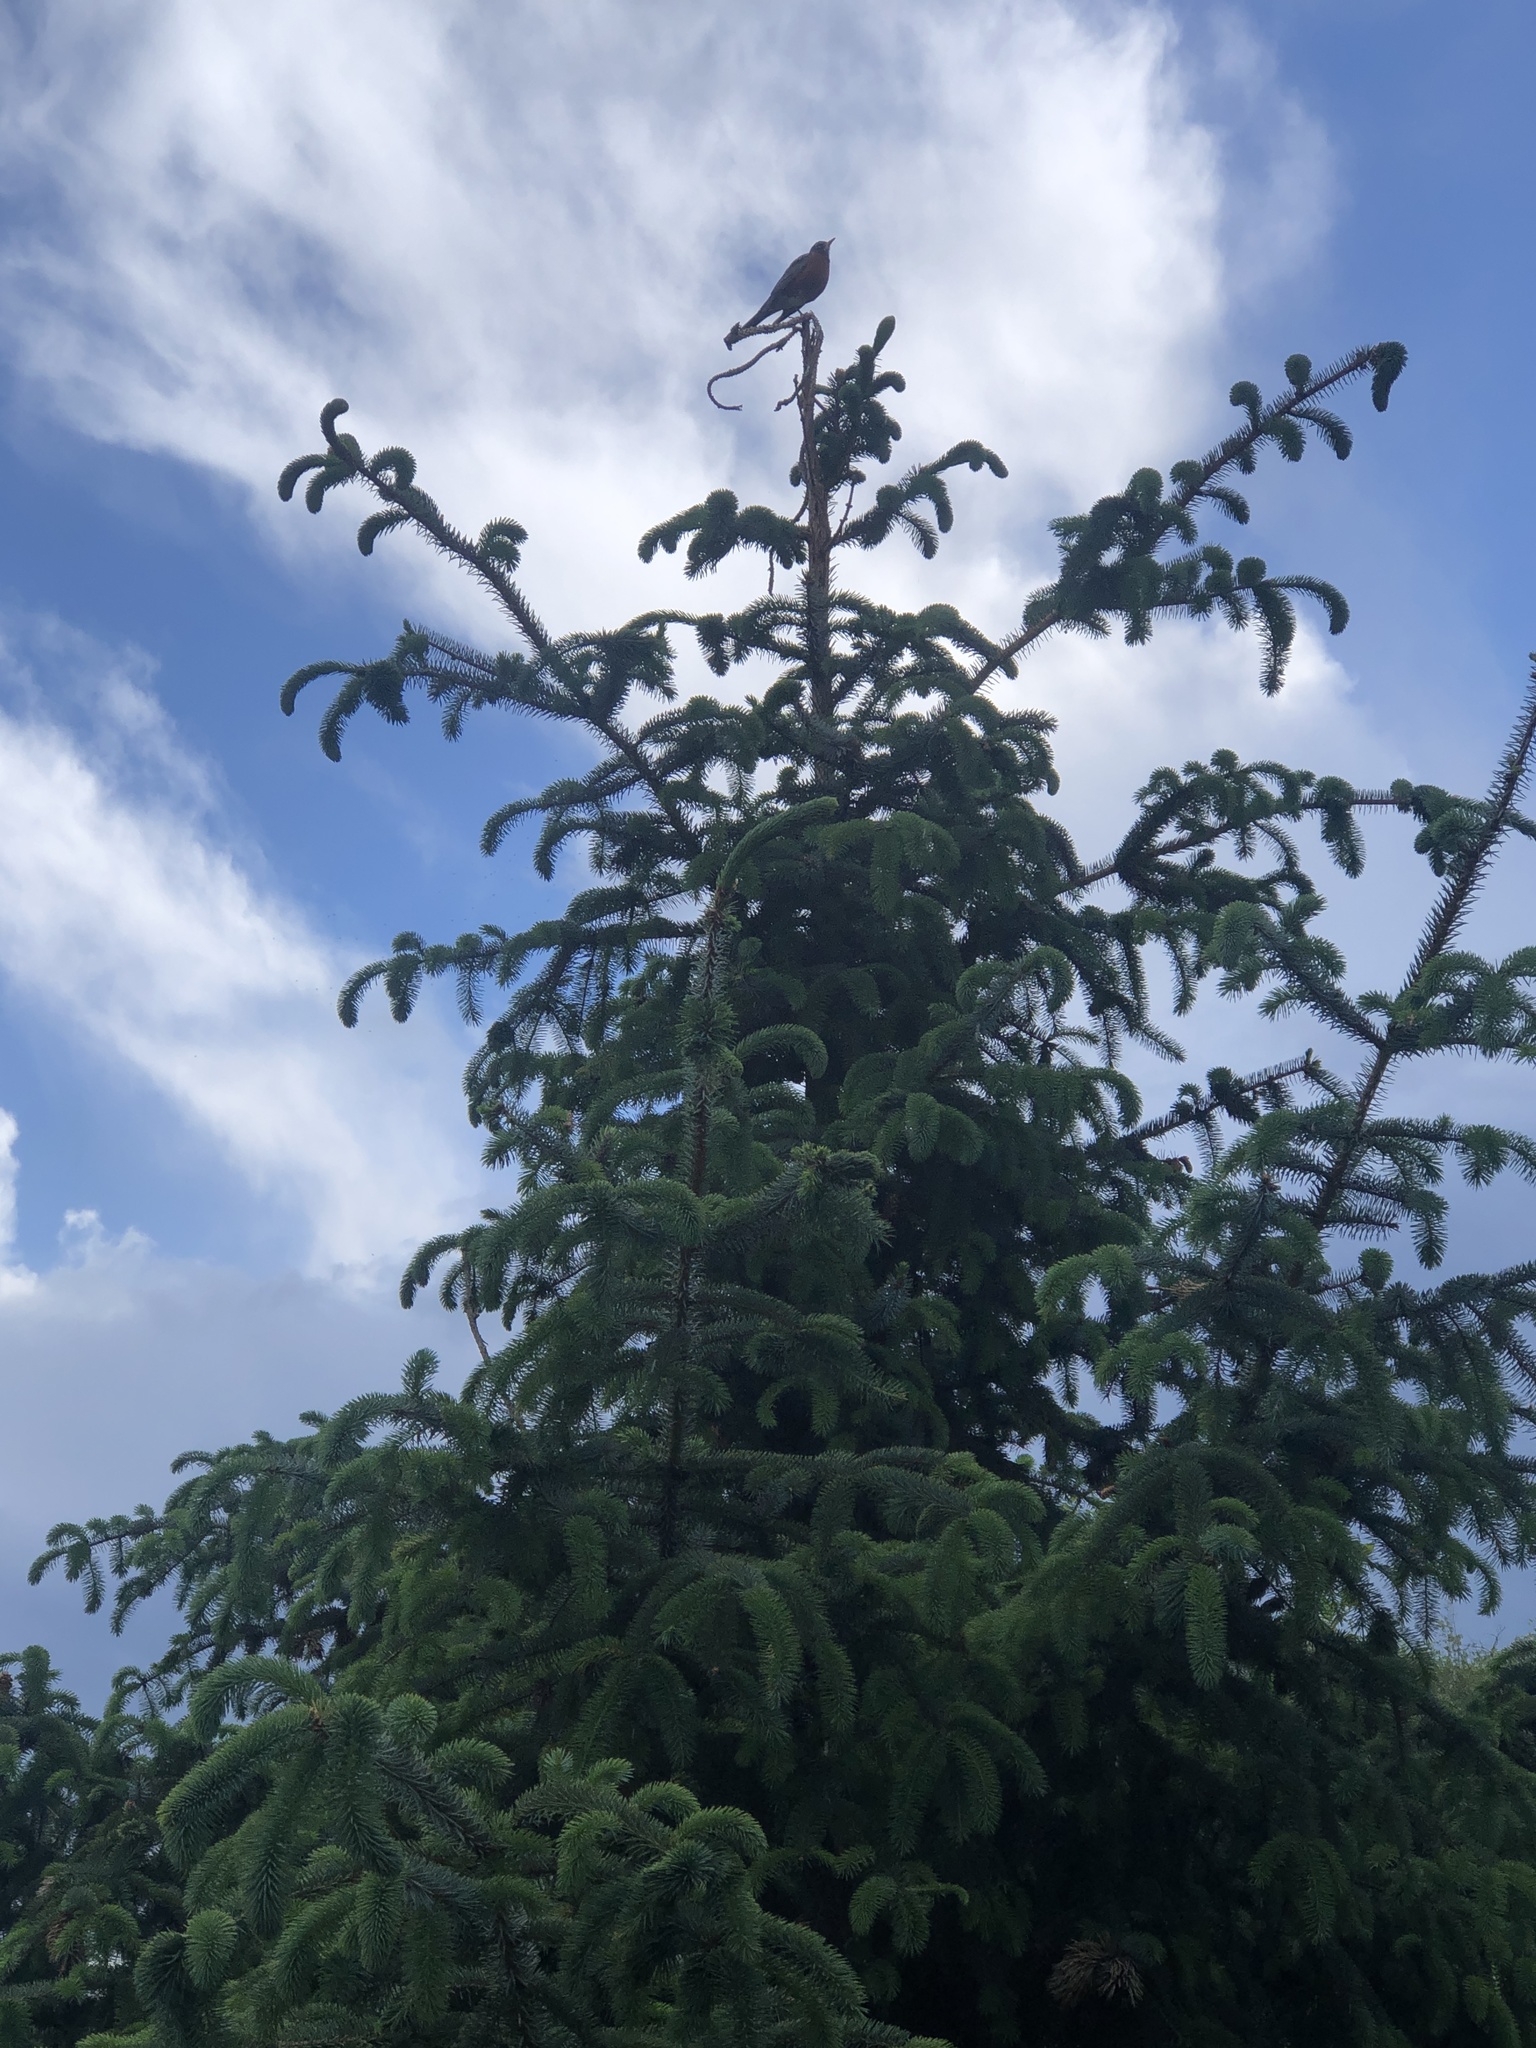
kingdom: Animalia
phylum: Chordata
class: Aves
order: Passeriformes
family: Turdidae
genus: Turdus
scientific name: Turdus migratorius
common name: American robin
